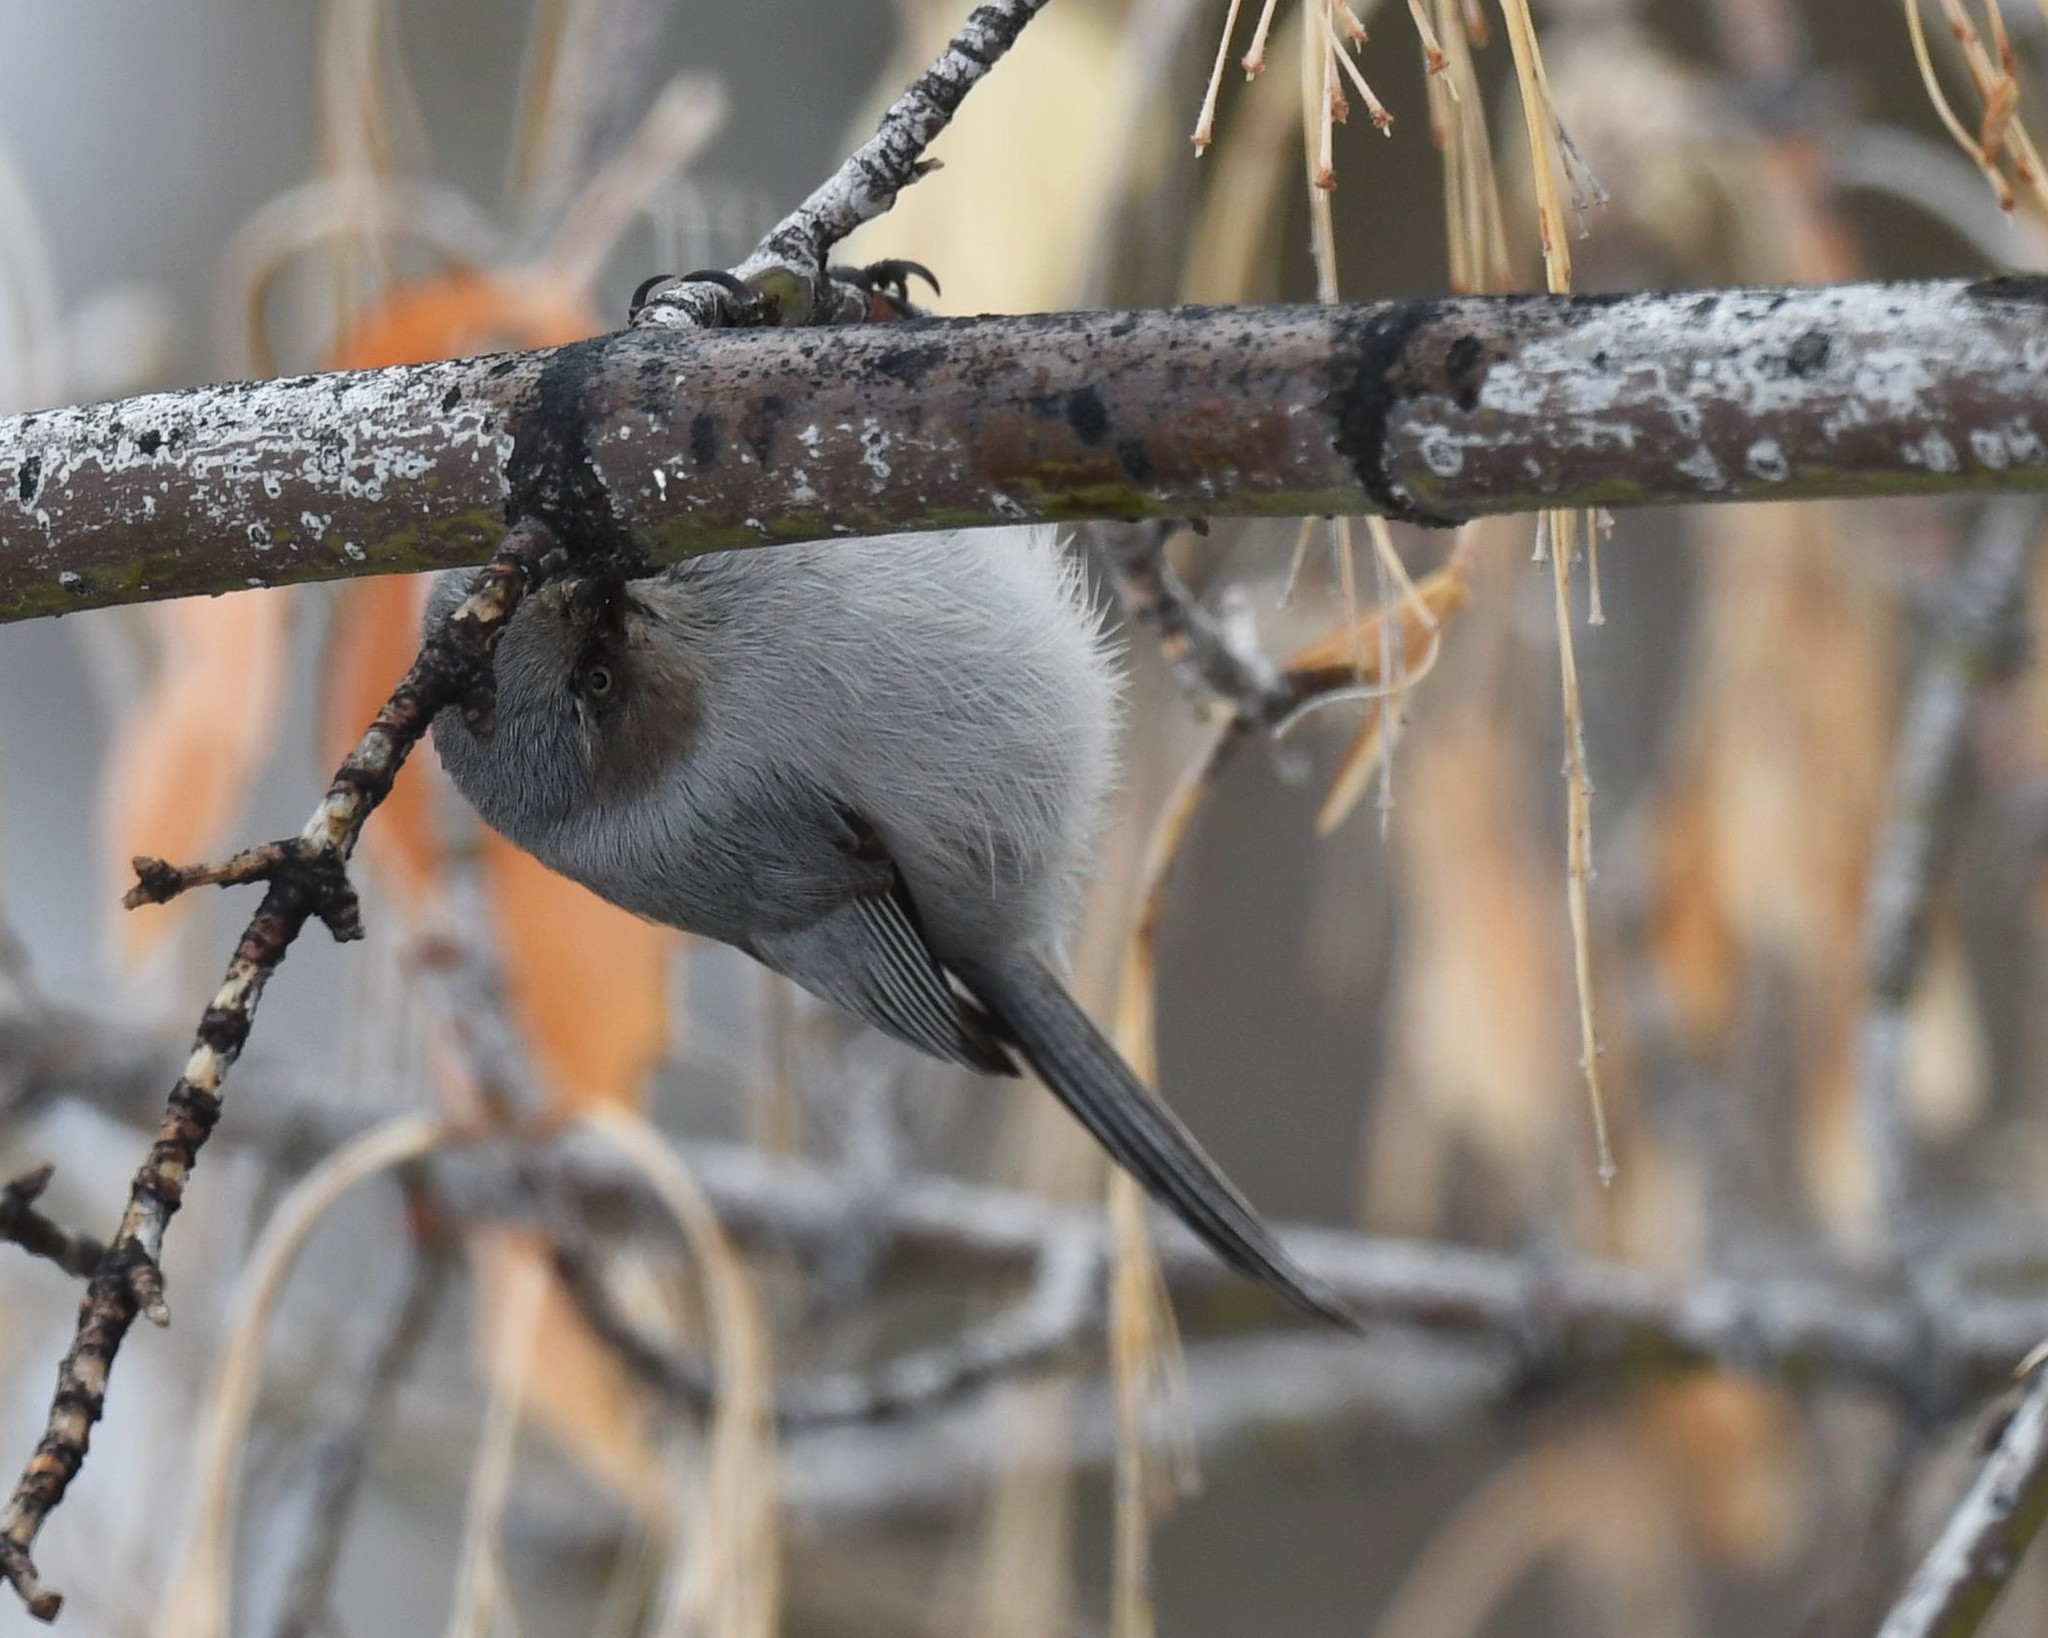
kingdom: Animalia
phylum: Chordata
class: Aves
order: Passeriformes
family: Aegithalidae
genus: Psaltriparus
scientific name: Psaltriparus minimus
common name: American bushtit
